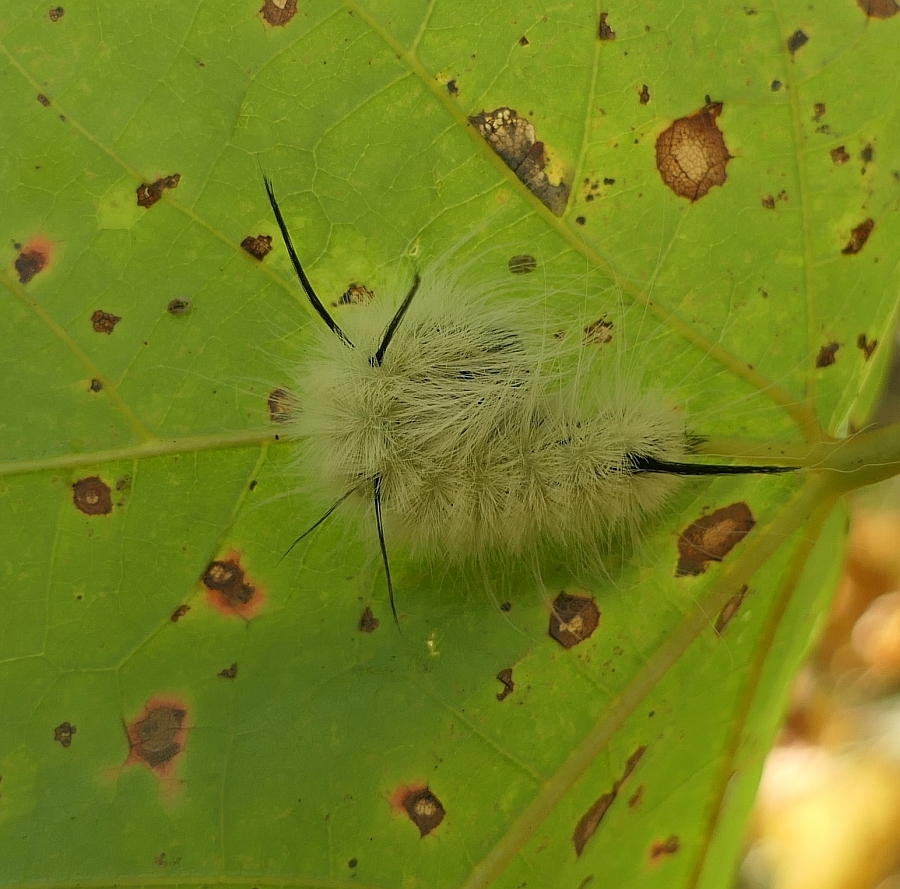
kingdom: Animalia
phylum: Arthropoda
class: Insecta
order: Lepidoptera
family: Noctuidae
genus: Acronicta
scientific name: Acronicta americana
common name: American dagger
